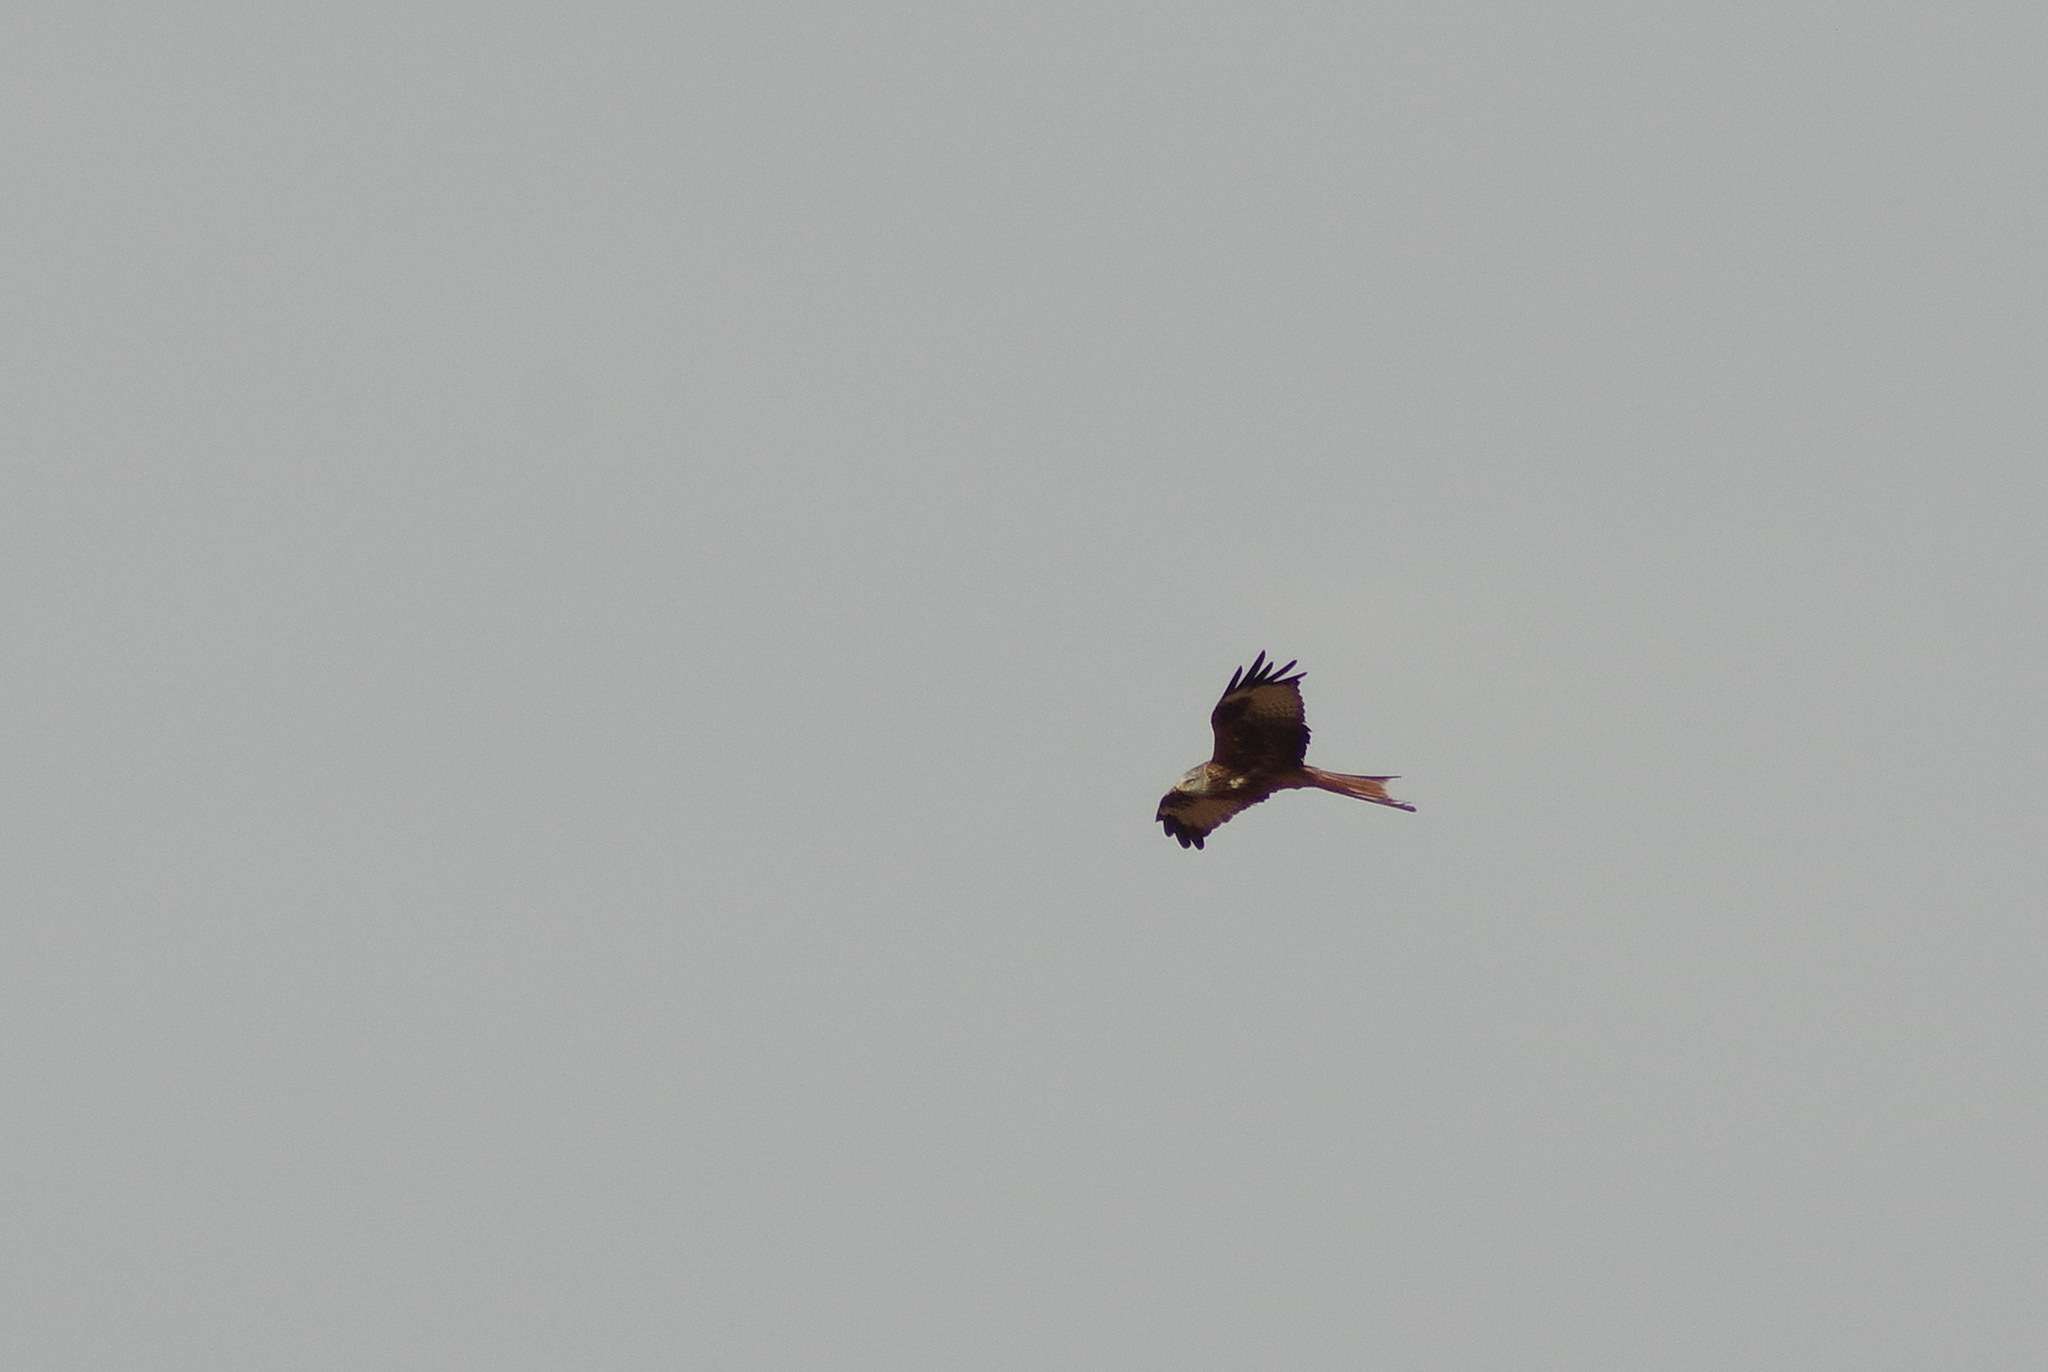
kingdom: Animalia
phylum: Chordata
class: Aves
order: Accipitriformes
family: Accipitridae
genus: Milvus
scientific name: Milvus milvus
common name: Red kite
